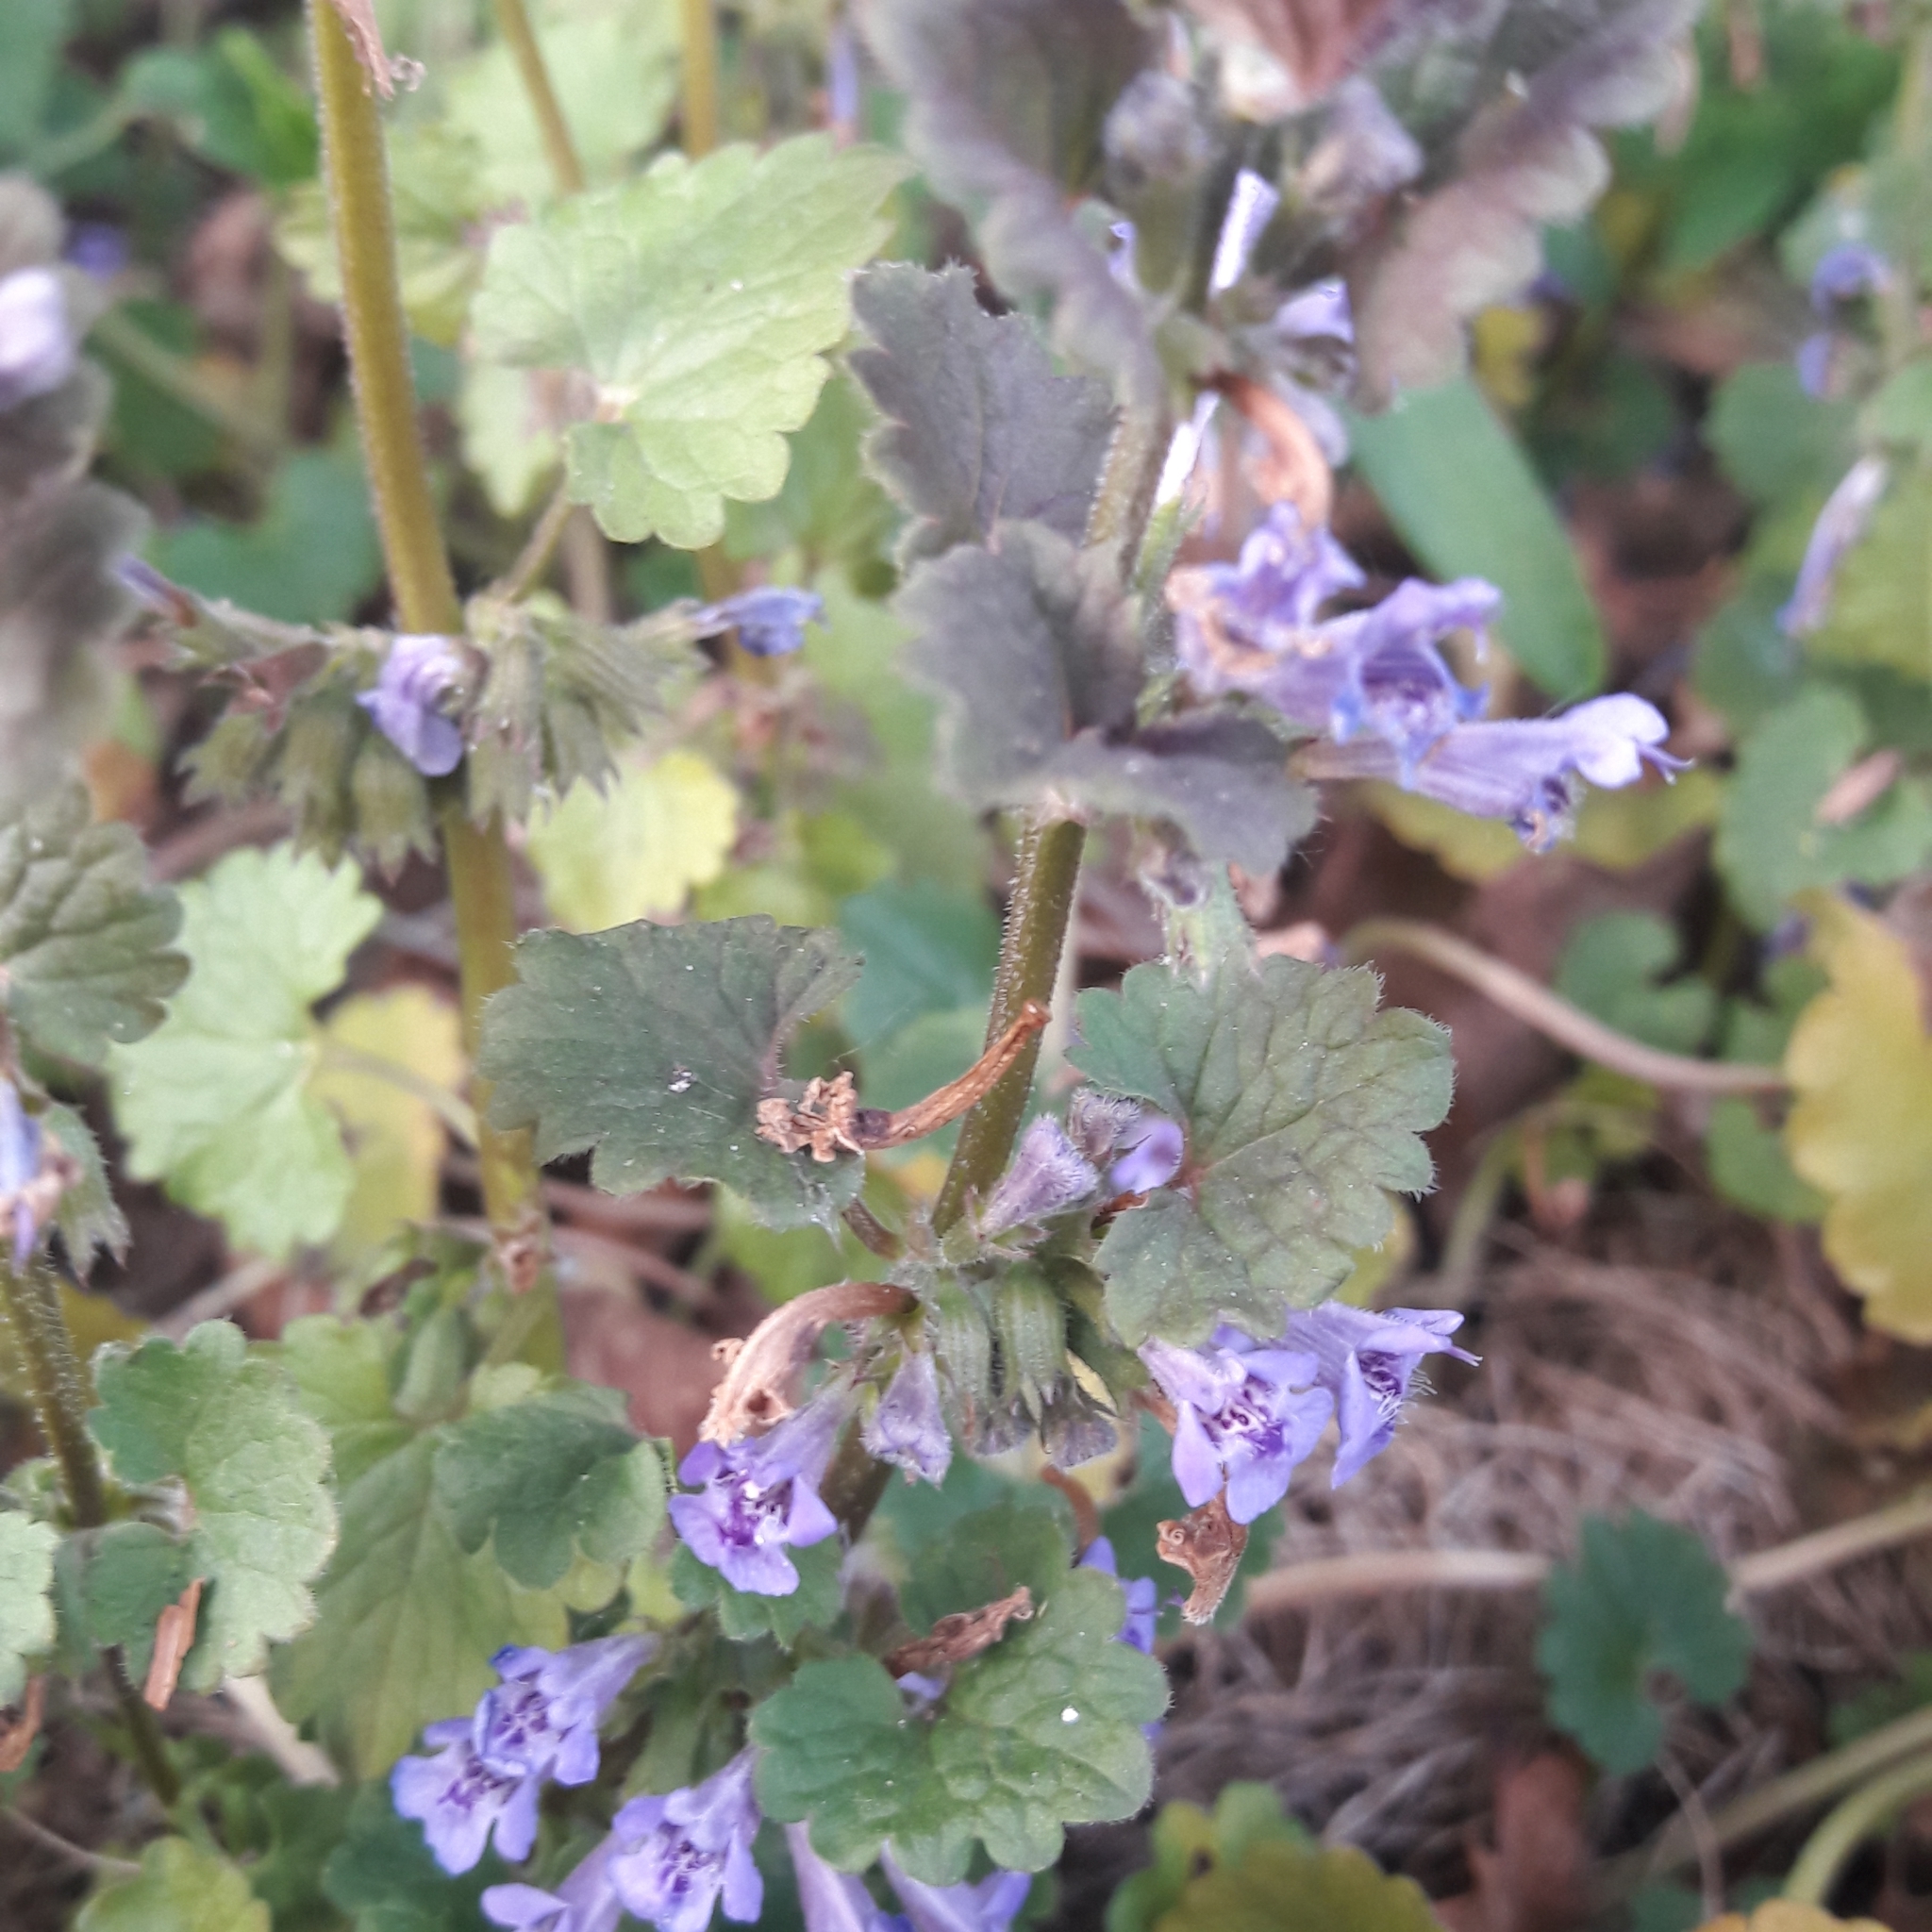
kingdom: Plantae
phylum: Tracheophyta
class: Magnoliopsida
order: Lamiales
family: Lamiaceae
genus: Glechoma
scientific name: Glechoma hederacea
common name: Ground ivy
